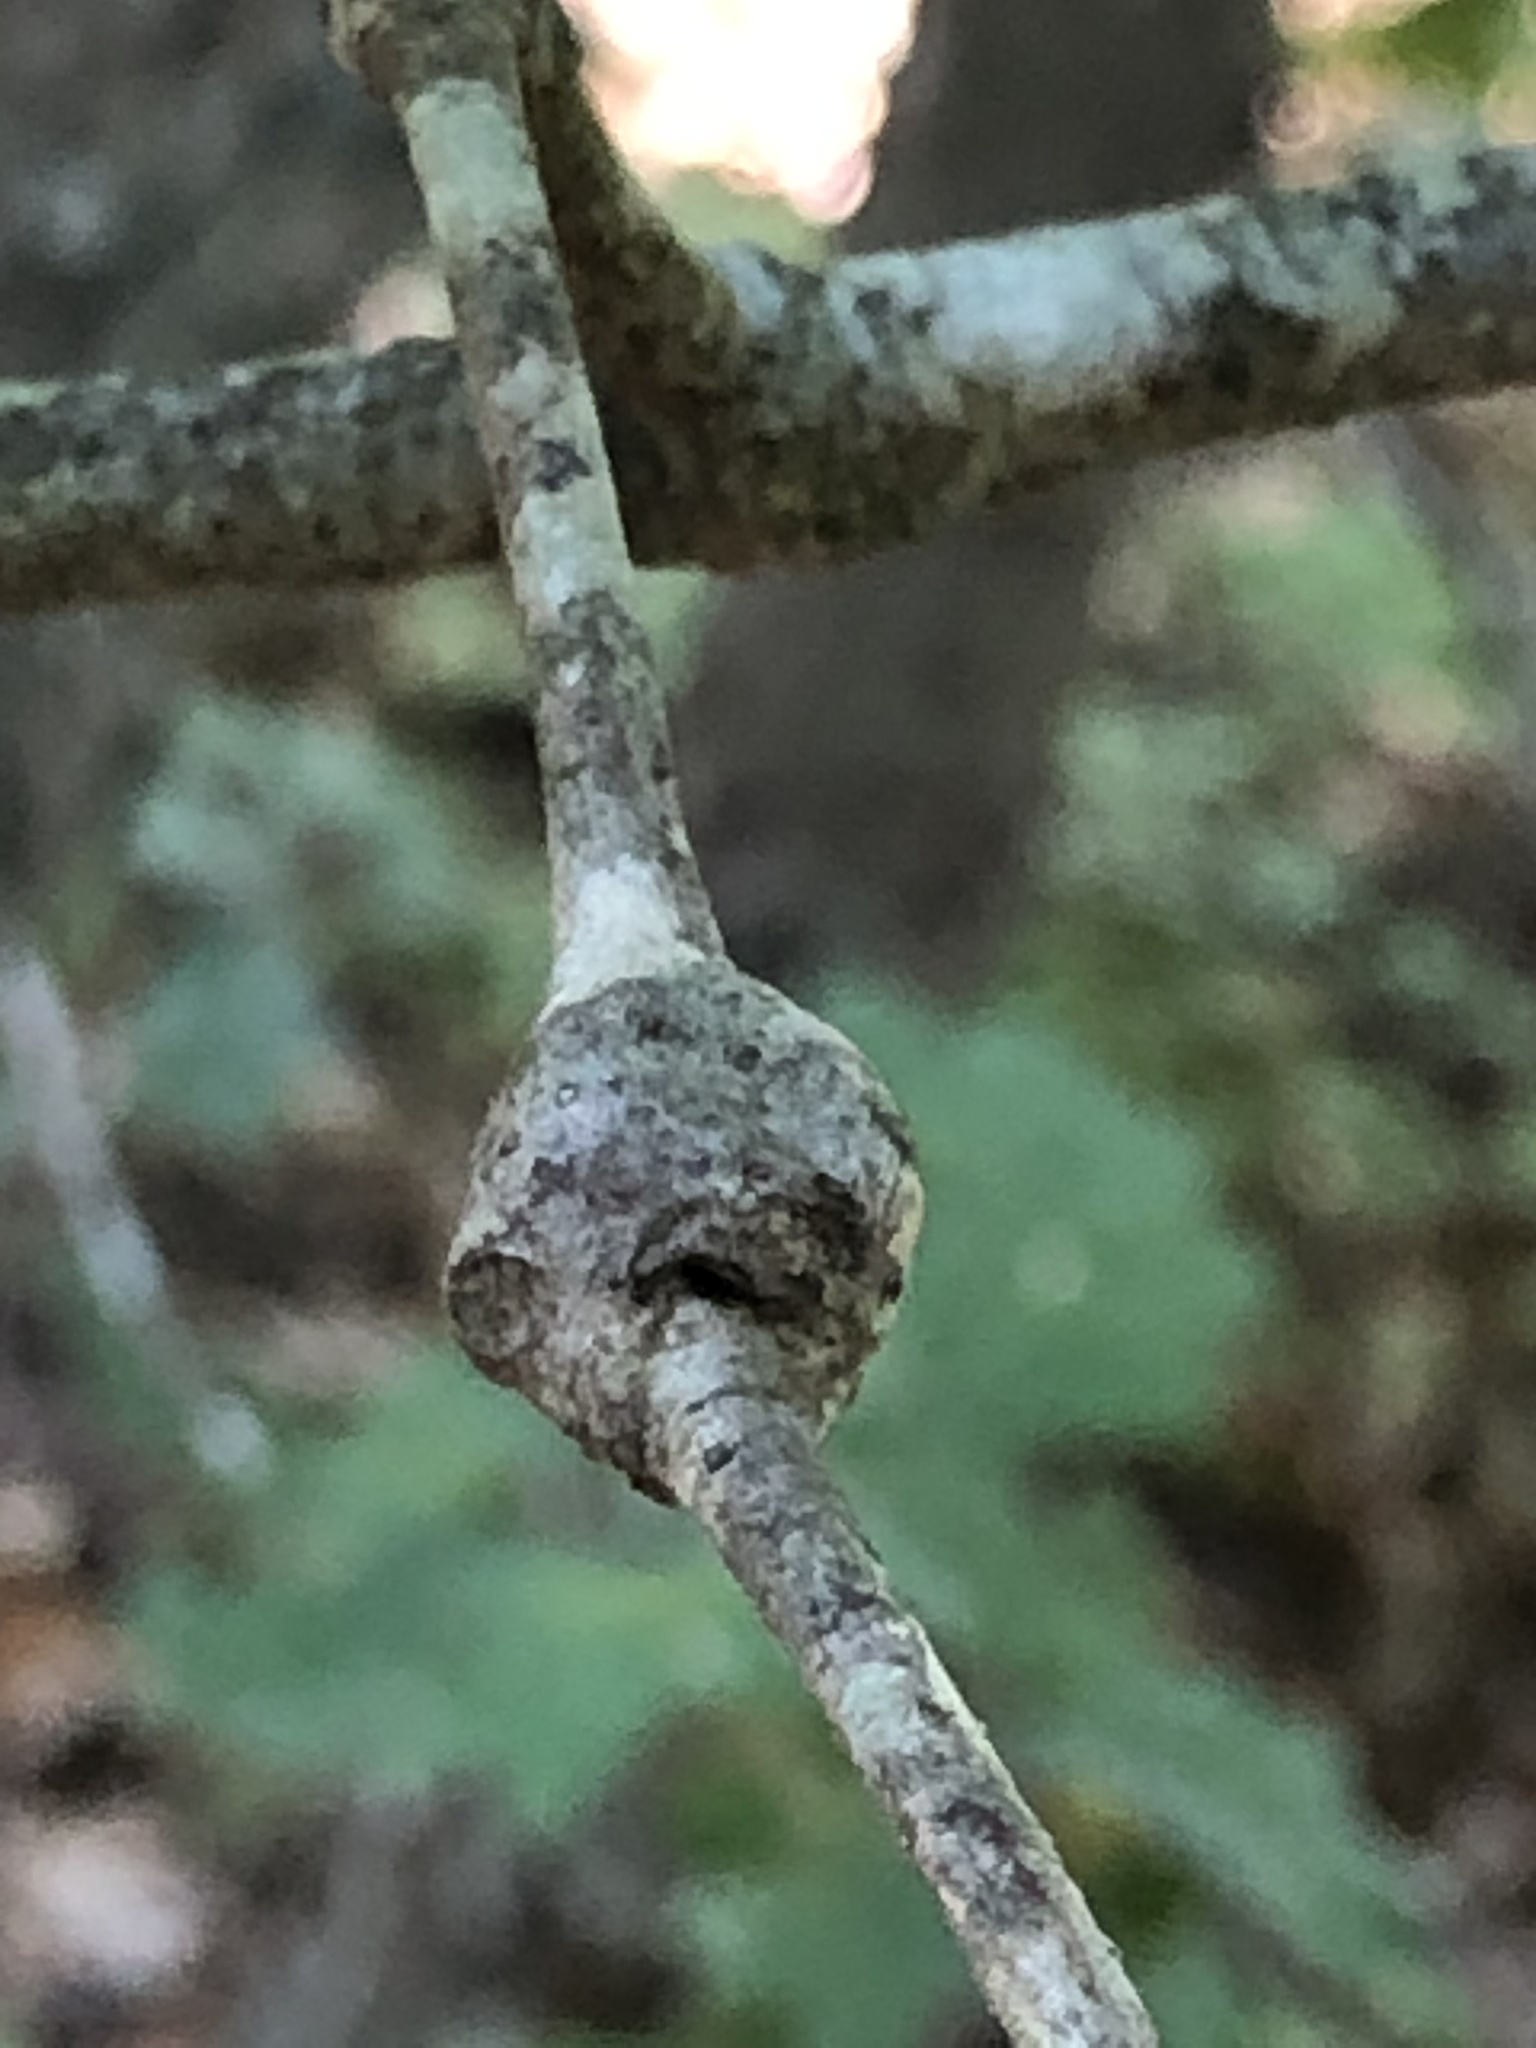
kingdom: Animalia
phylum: Arthropoda
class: Insecta
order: Hymenoptera
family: Cynipidae
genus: Callirhytis
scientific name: Callirhytis clavula
